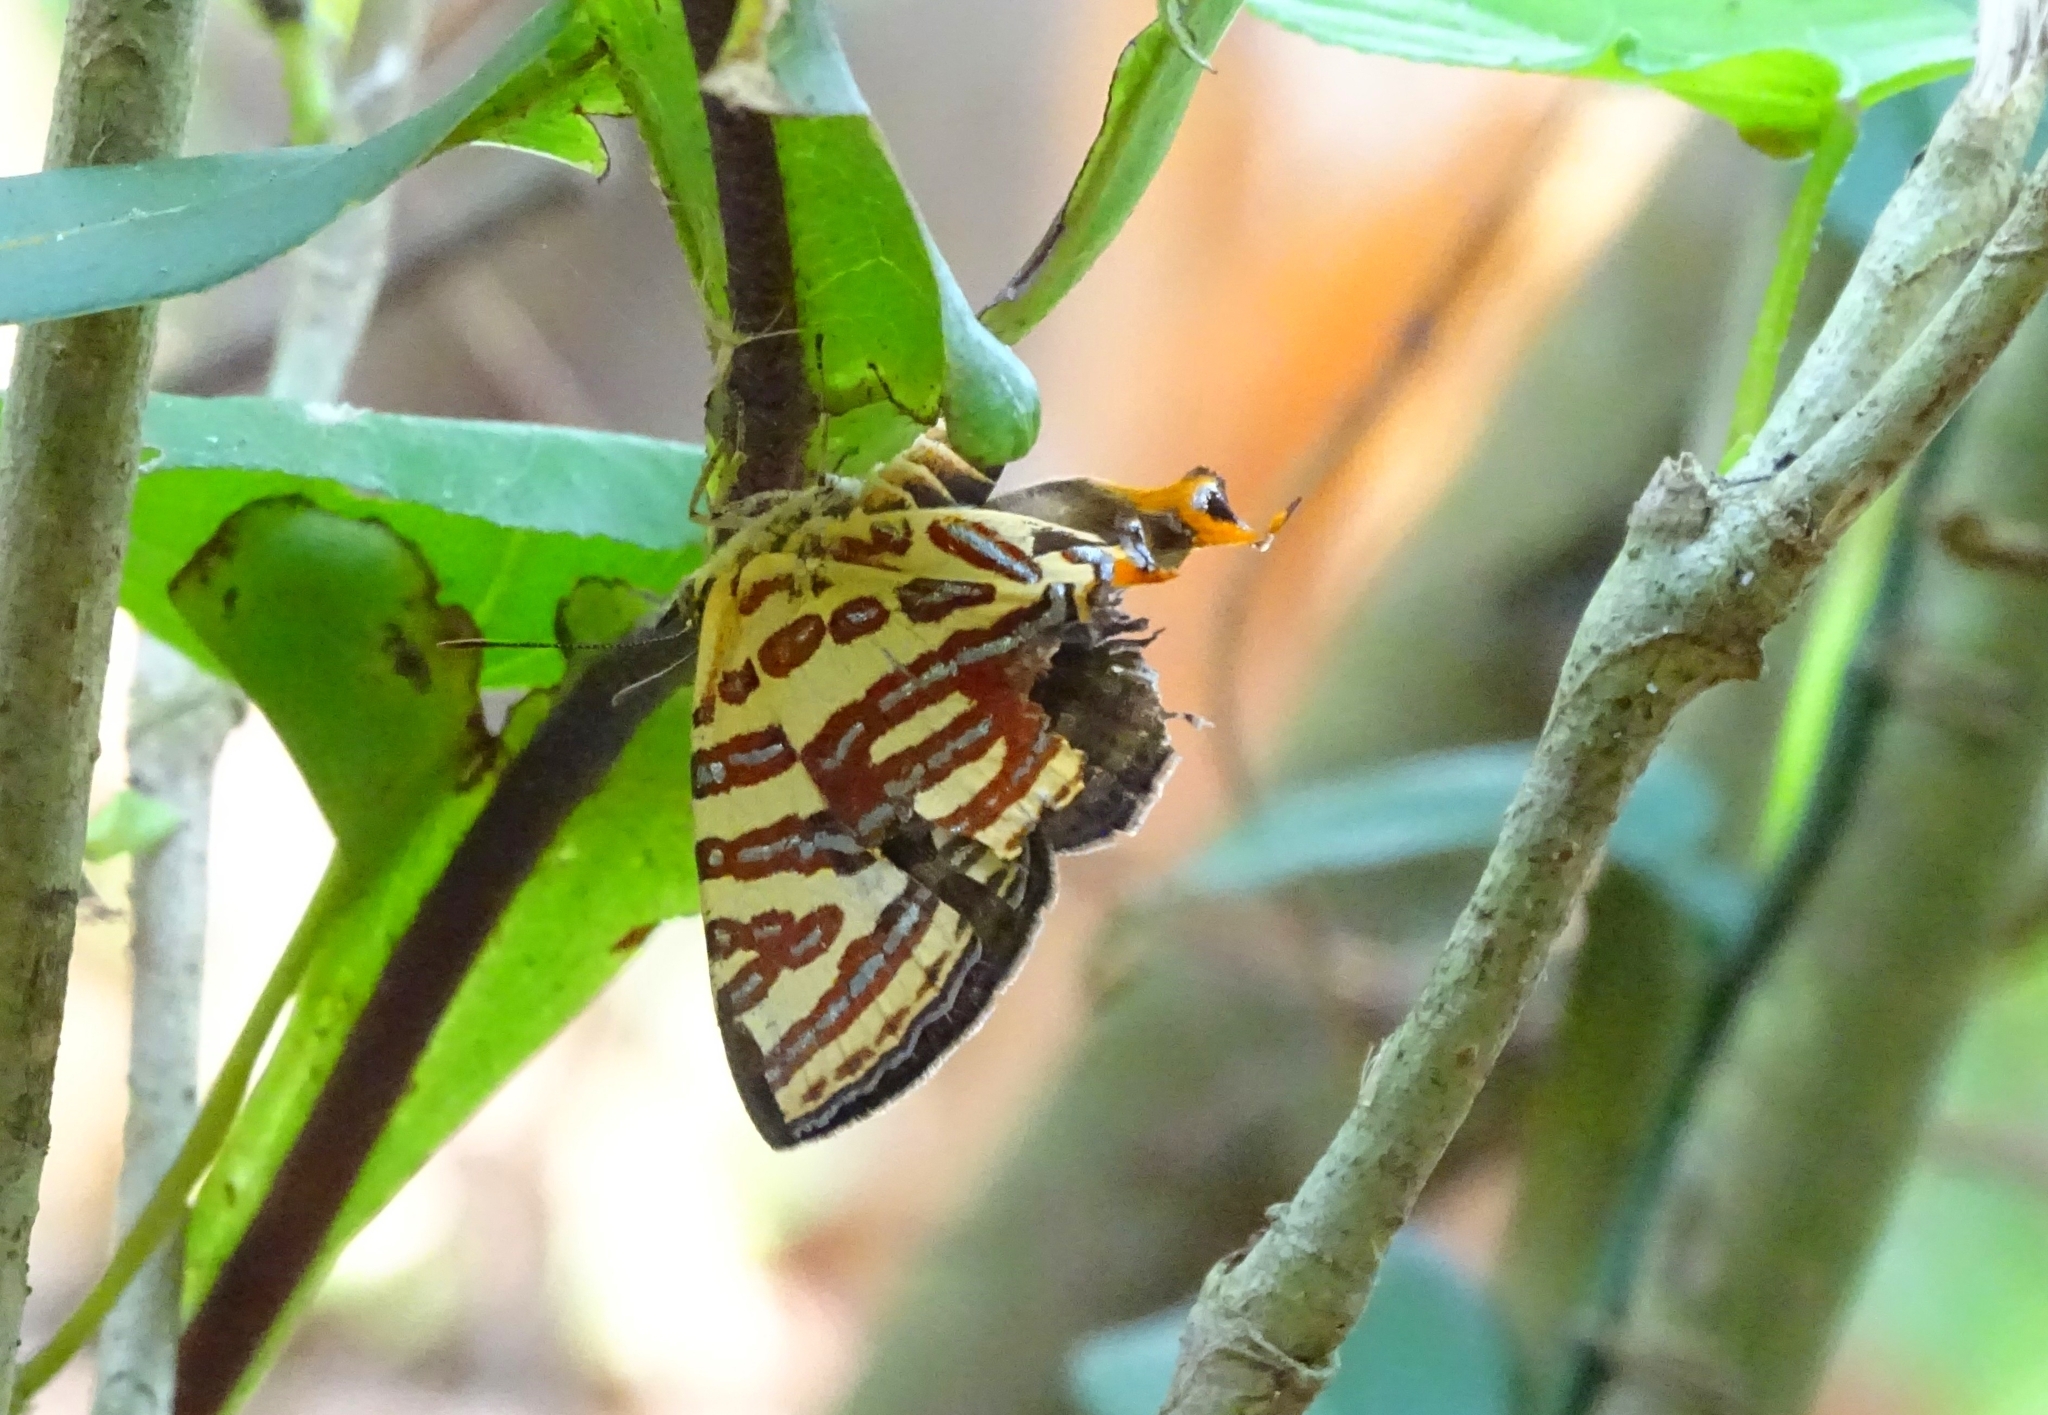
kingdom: Animalia
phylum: Arthropoda
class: Insecta
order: Lepidoptera
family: Lycaenidae
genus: Cigaritis
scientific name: Cigaritis lohita
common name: Long-banded silverline
